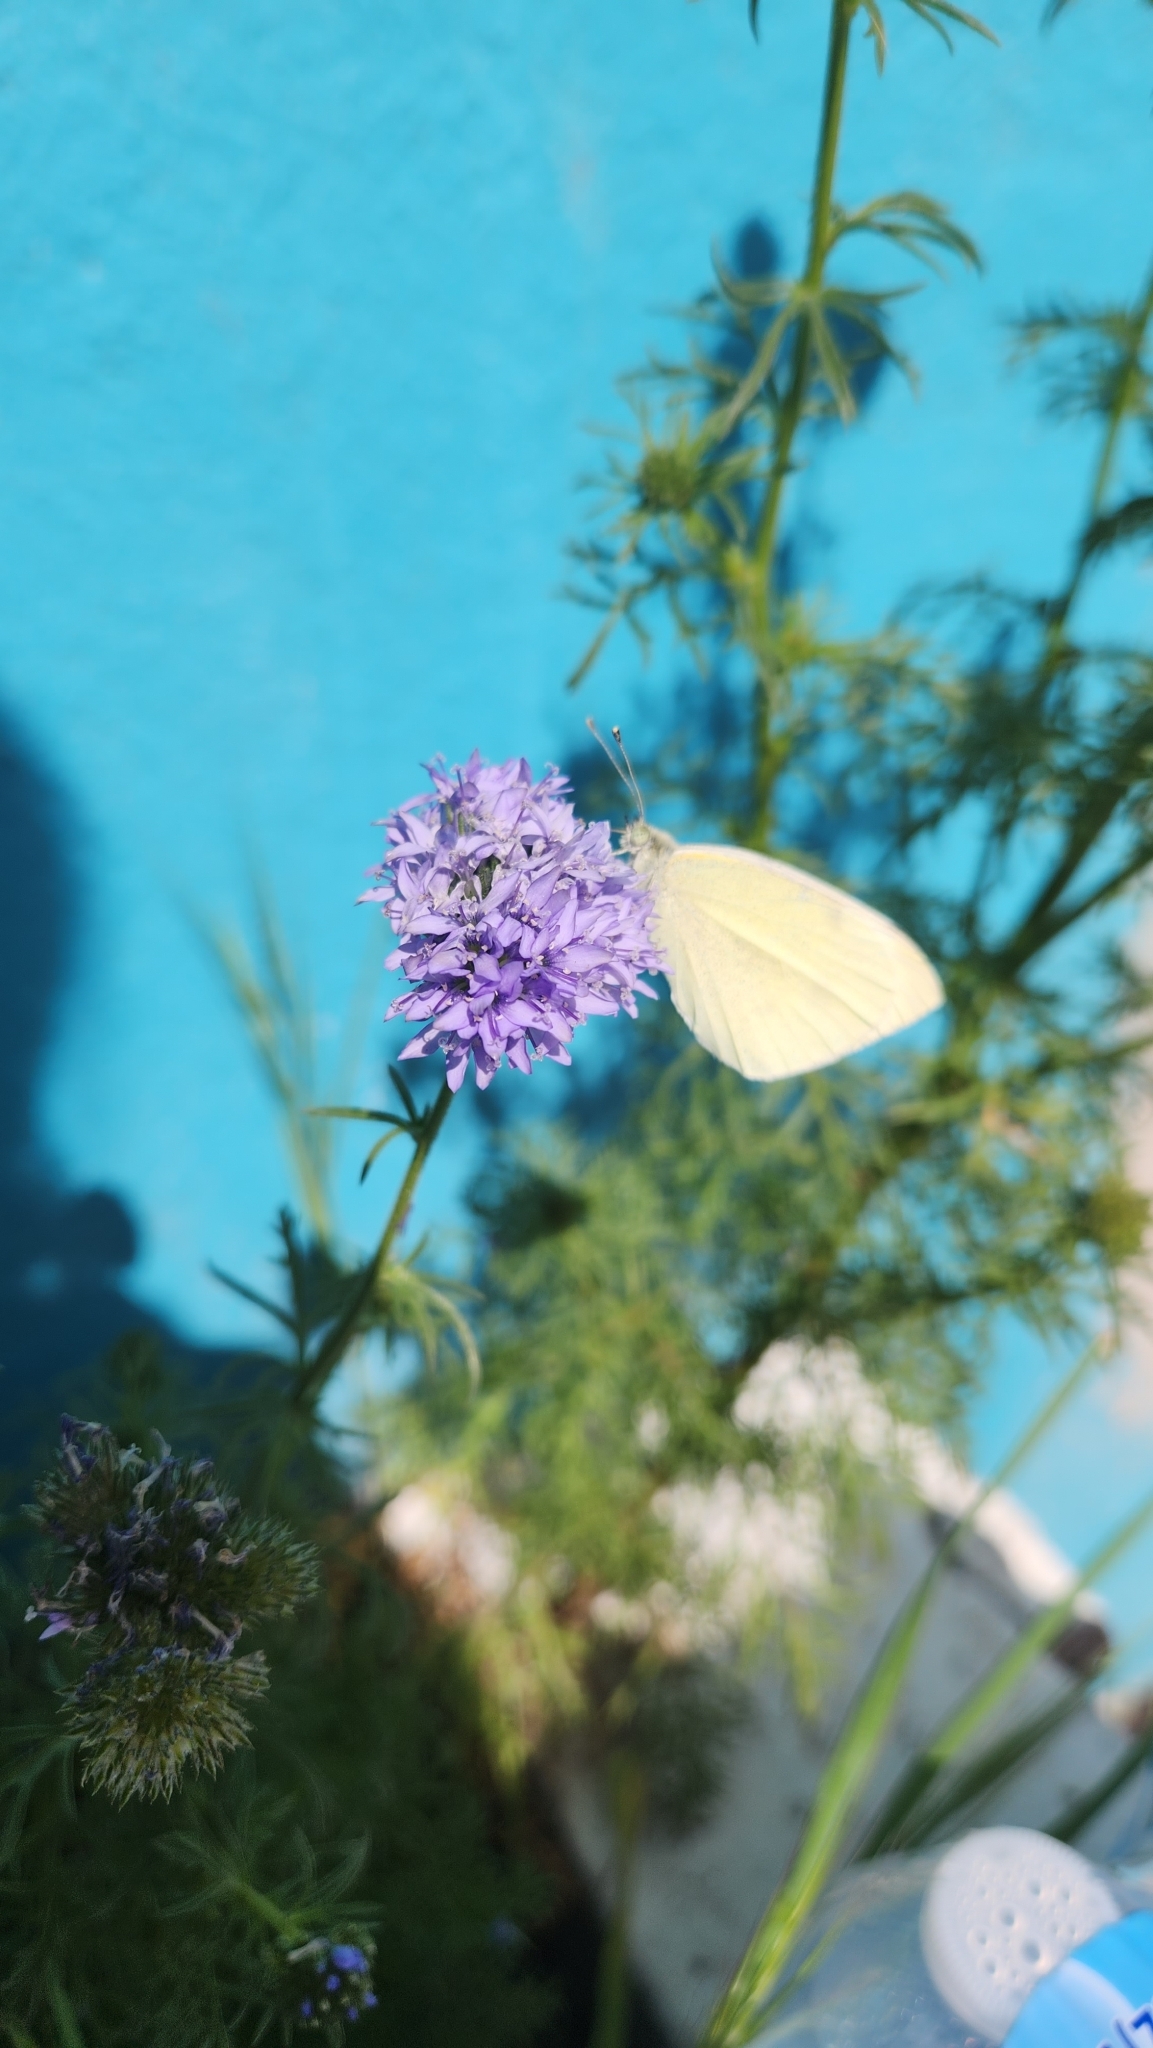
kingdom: Animalia
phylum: Arthropoda
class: Insecta
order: Lepidoptera
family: Pieridae
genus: Pieris
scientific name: Pieris rapae
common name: Small white
